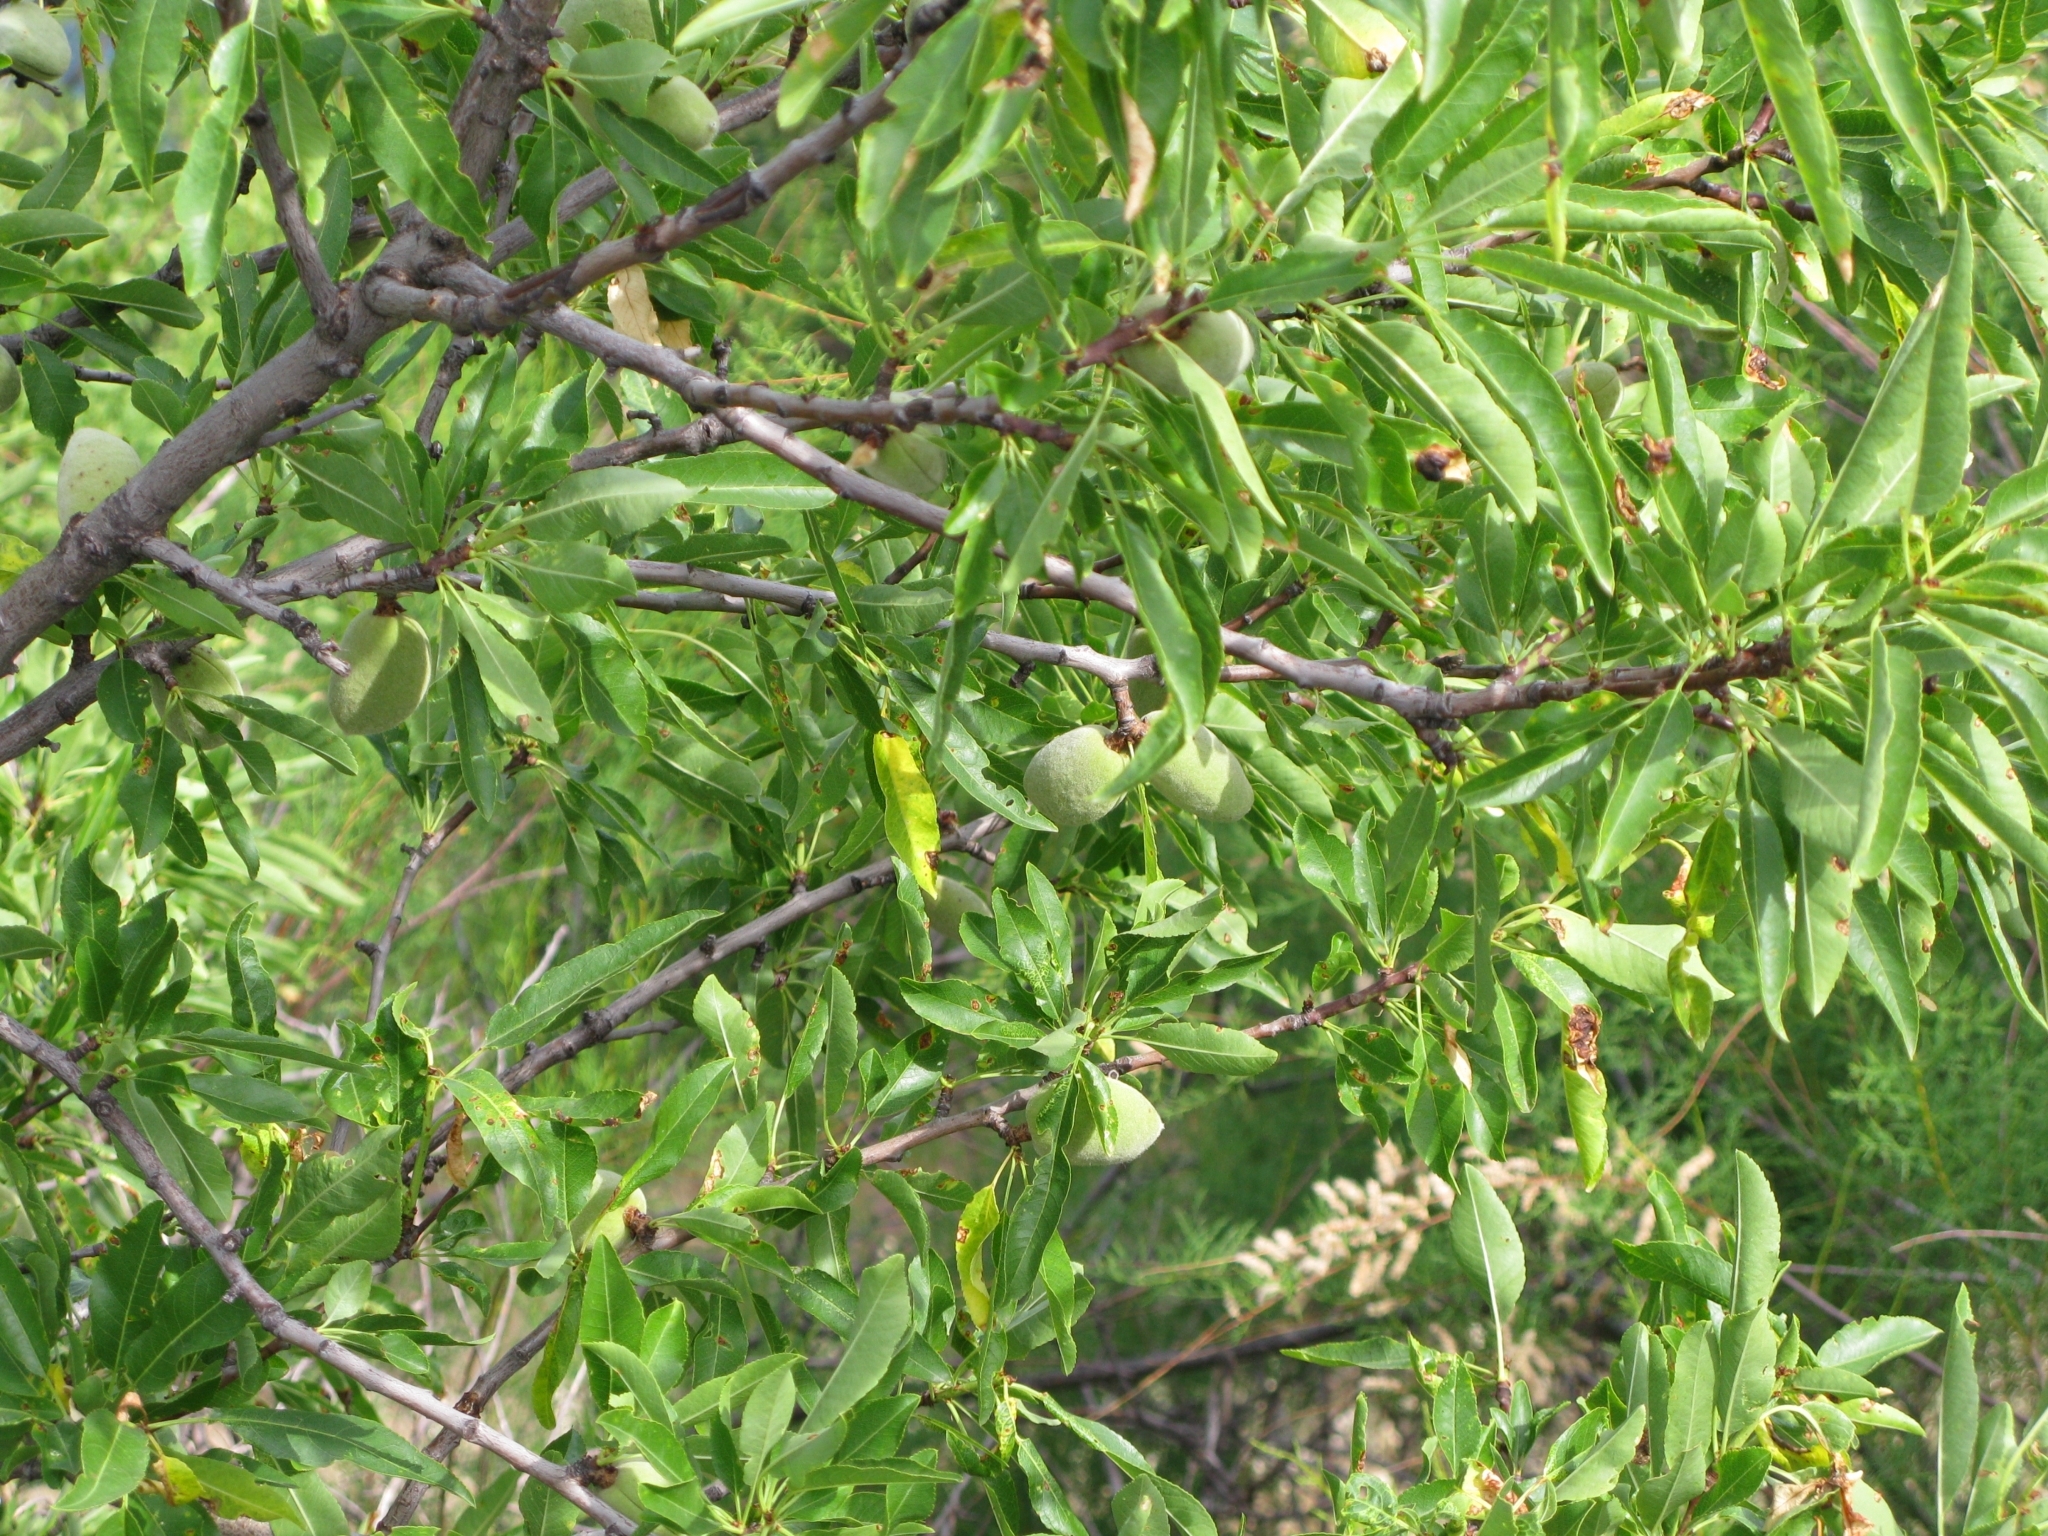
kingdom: Plantae
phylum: Tracheophyta
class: Magnoliopsida
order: Rosales
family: Rosaceae
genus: Prunus
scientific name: Prunus amygdalus
